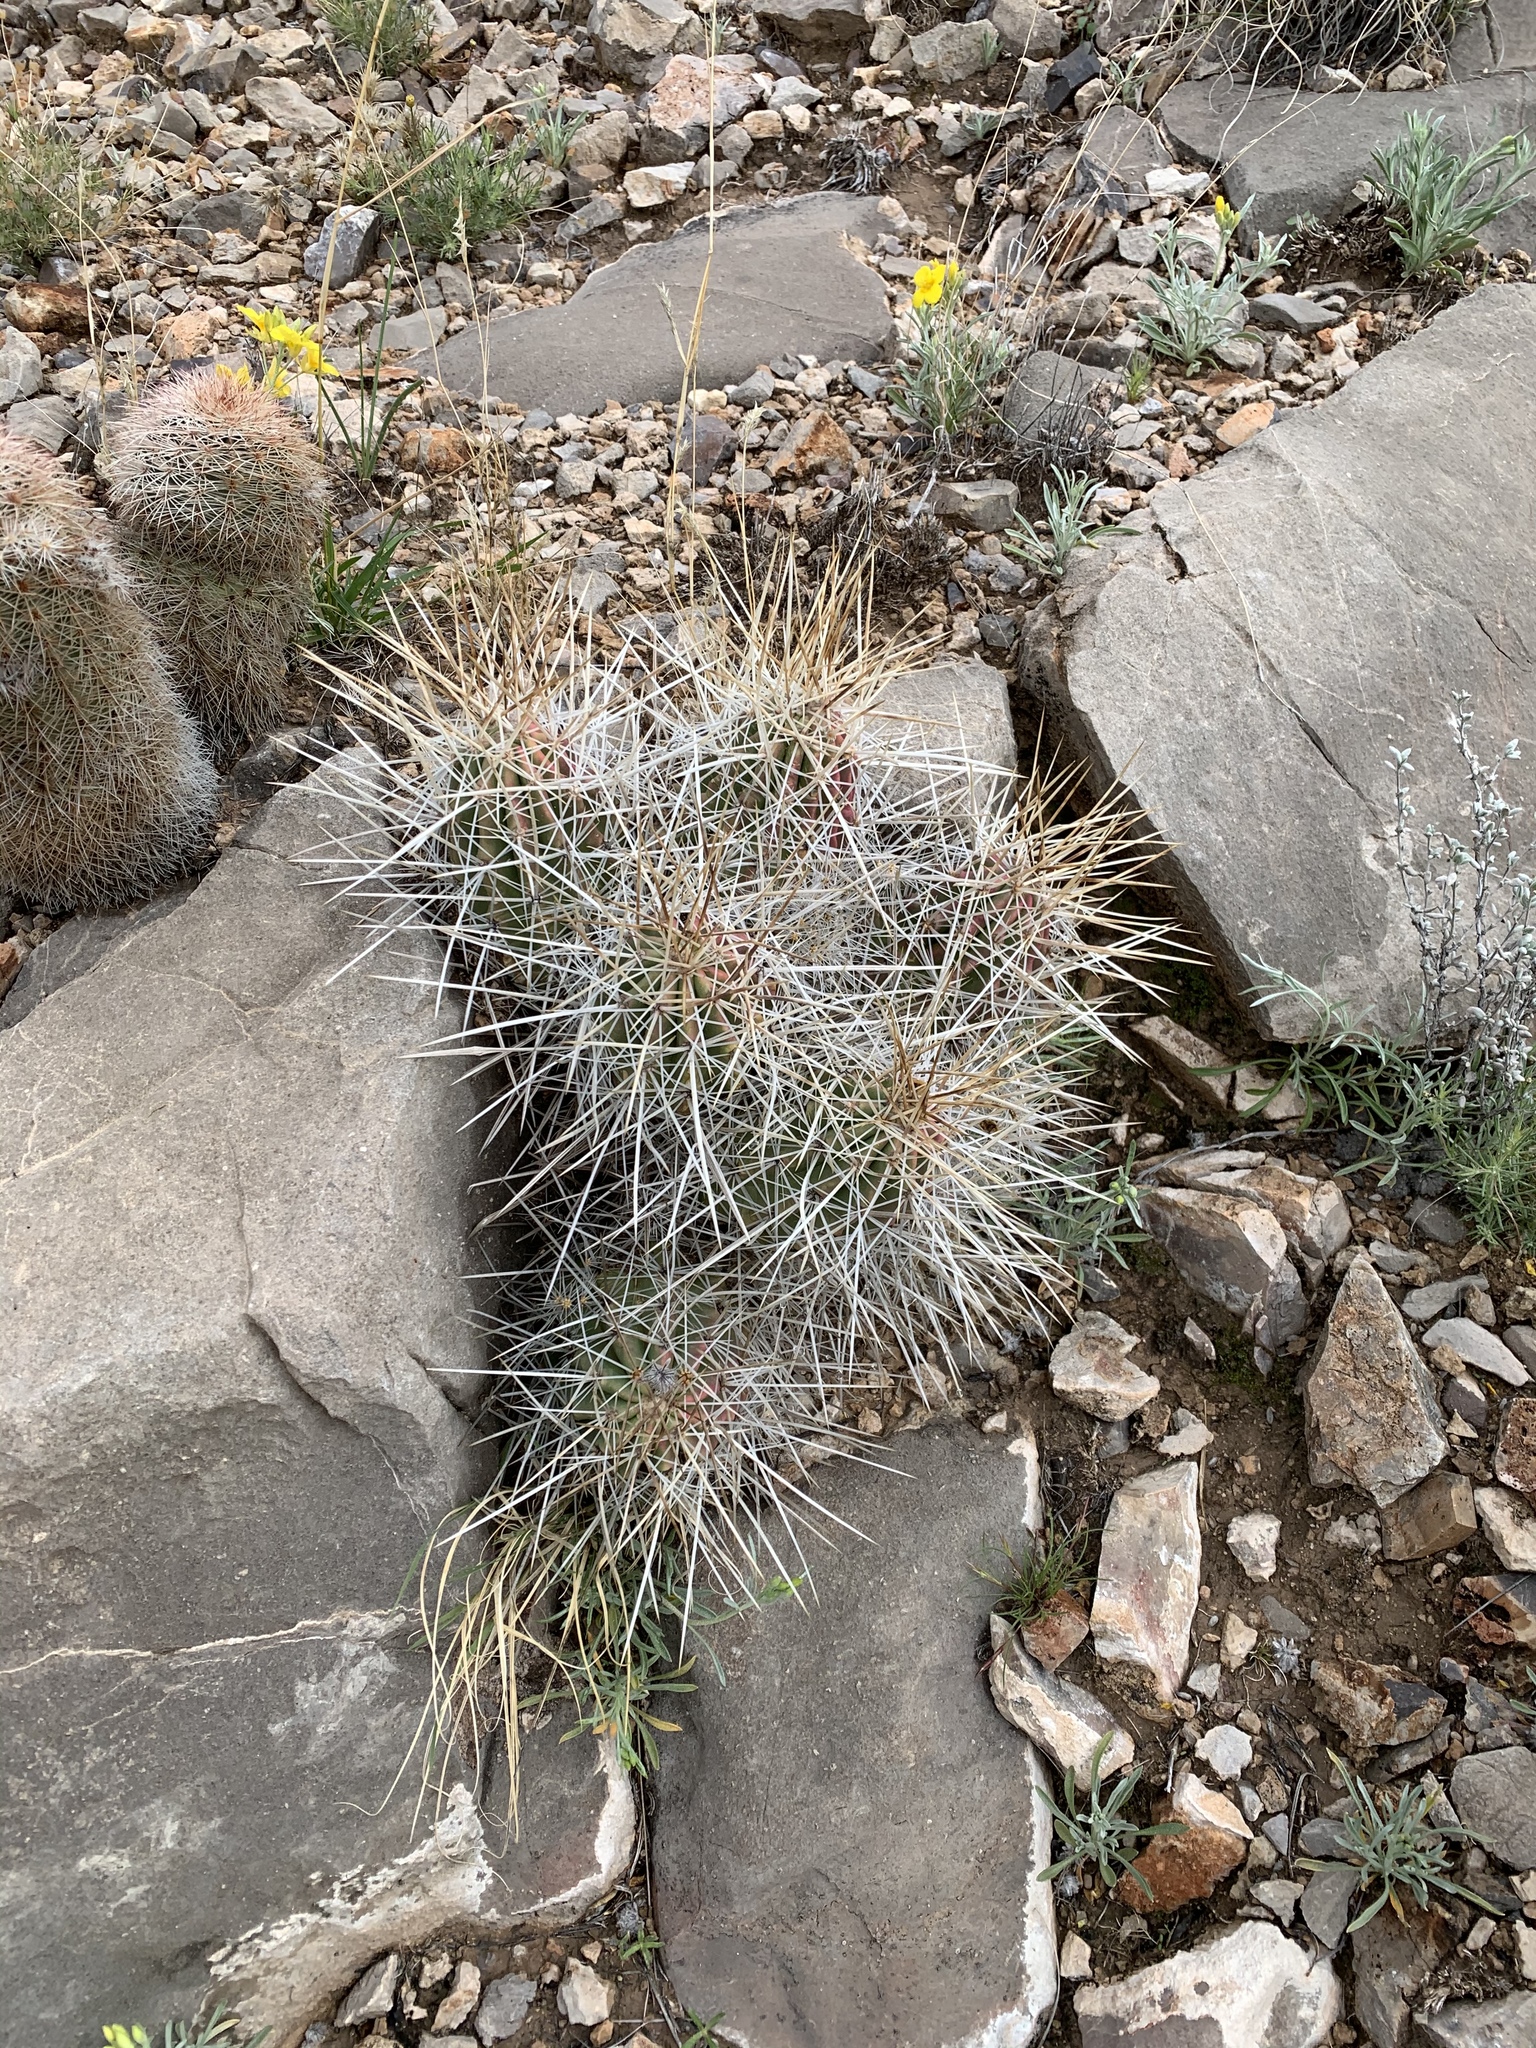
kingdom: Plantae
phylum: Tracheophyta
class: Magnoliopsida
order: Caryophyllales
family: Cactaceae
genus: Echinocereus
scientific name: Echinocereus stramineus
